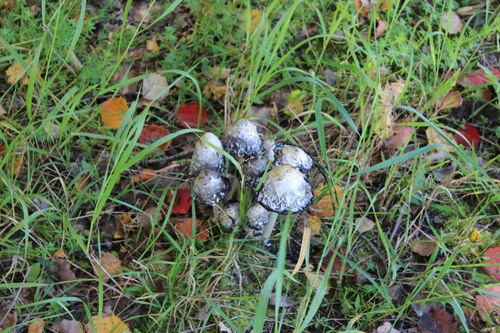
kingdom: Fungi
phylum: Basidiomycota
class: Agaricomycetes
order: Agaricales
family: Agaricaceae
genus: Coprinus
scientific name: Coprinus comatus
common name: Lawyer's wig
